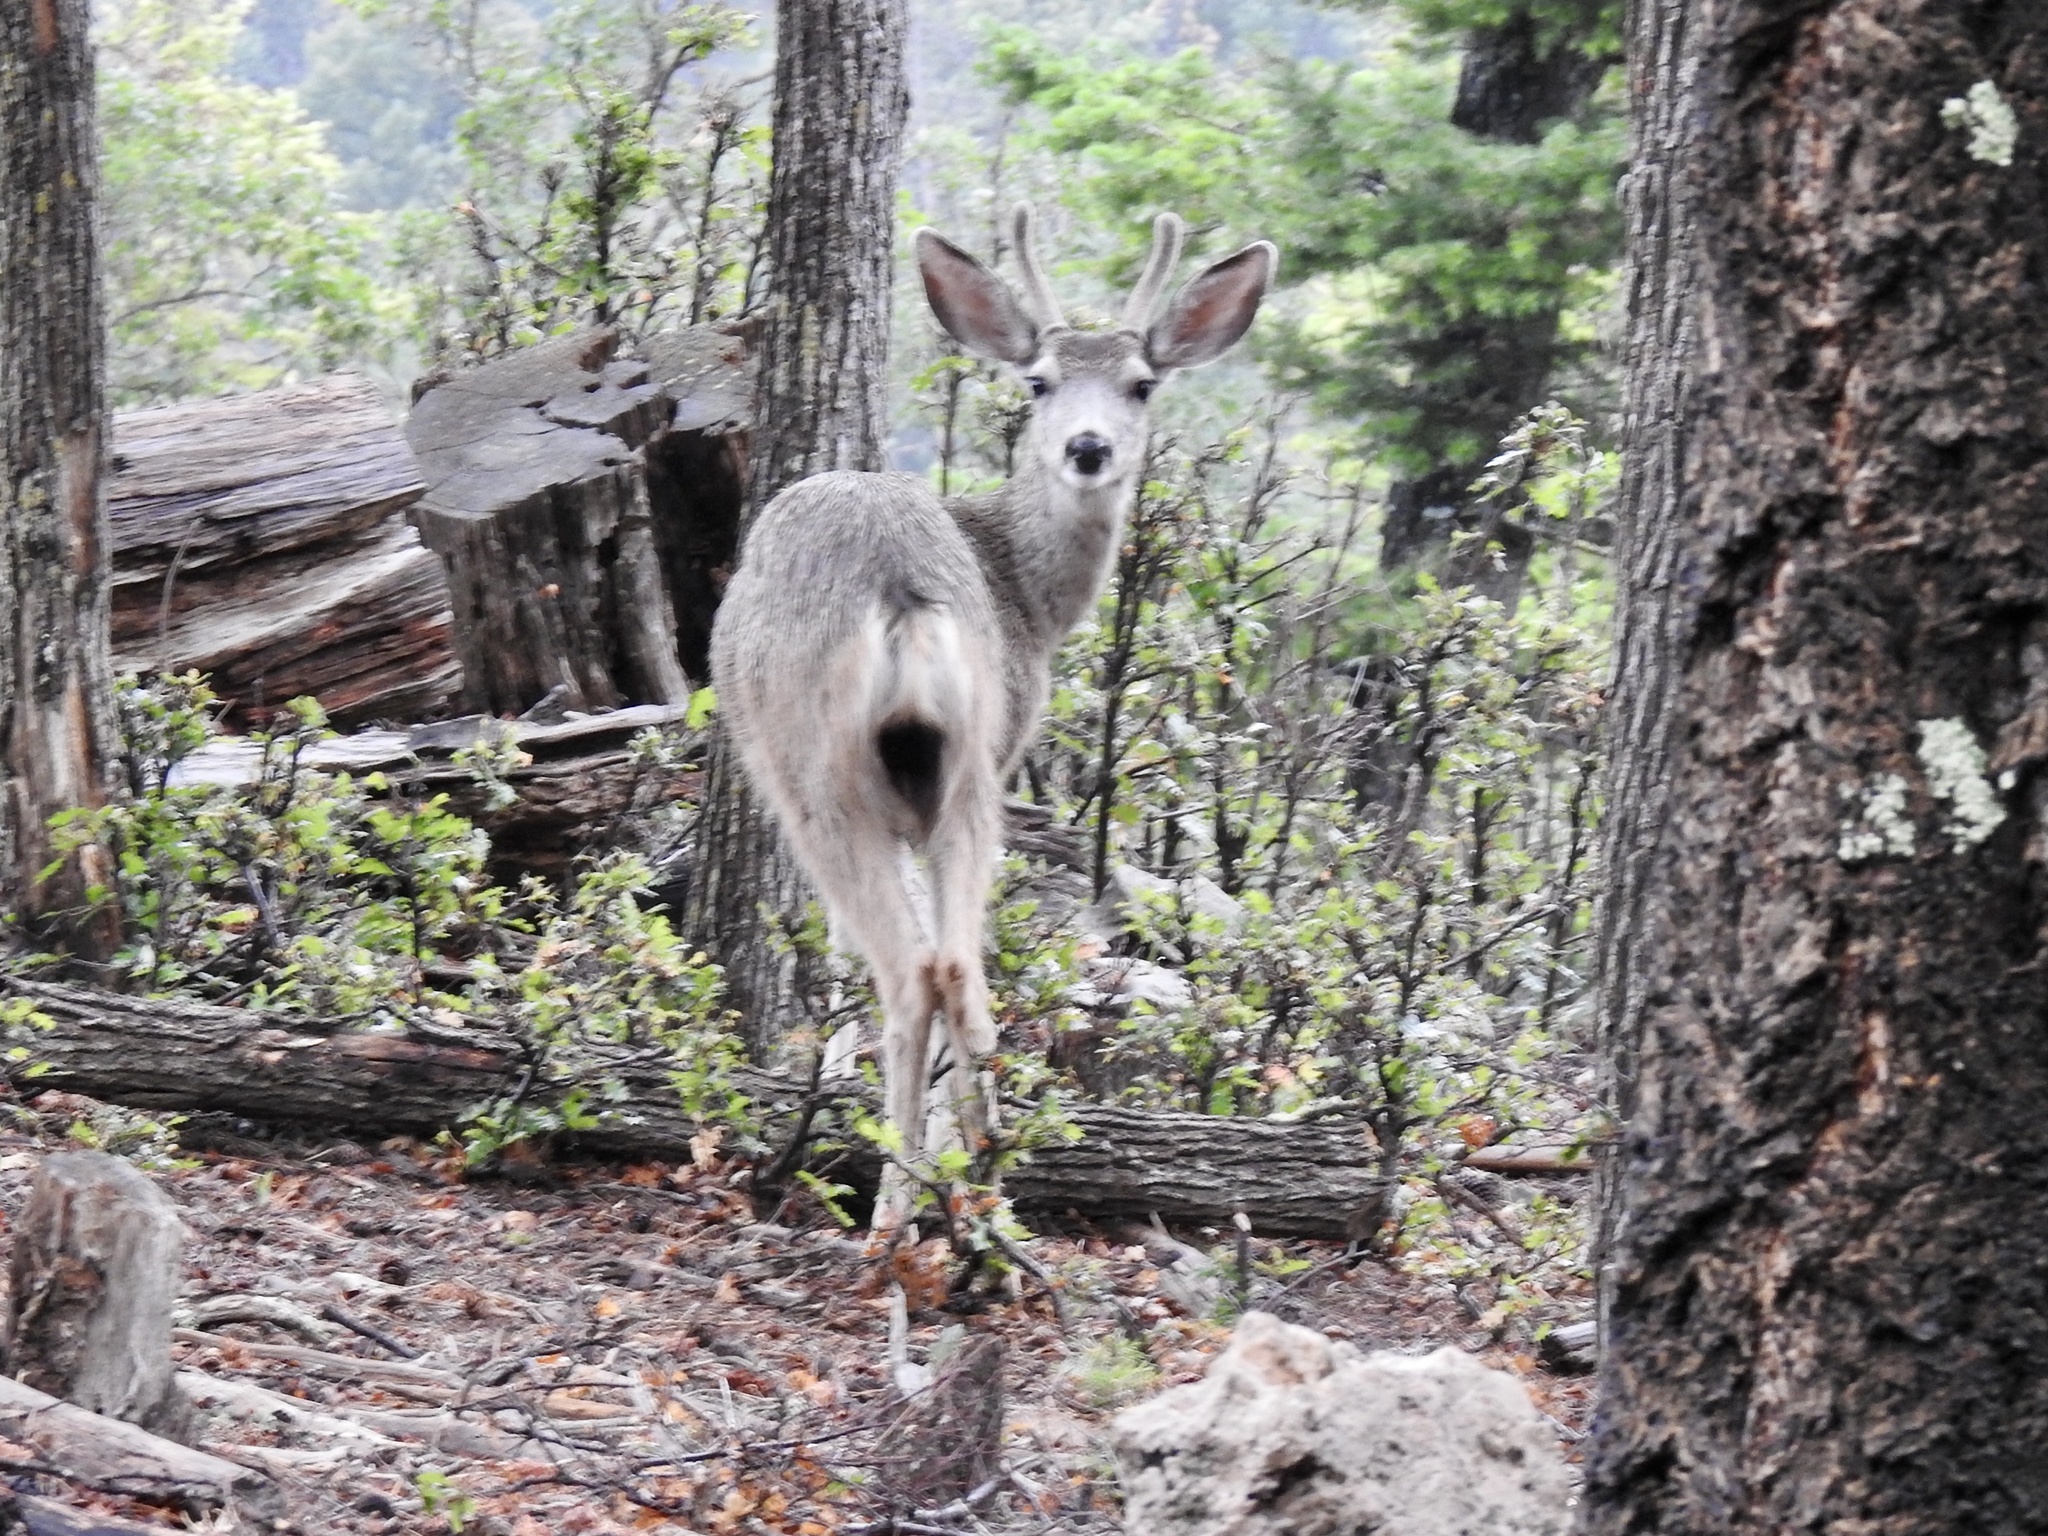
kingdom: Animalia
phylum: Chordata
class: Mammalia
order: Artiodactyla
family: Cervidae
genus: Odocoileus
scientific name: Odocoileus hemionus
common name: Mule deer
